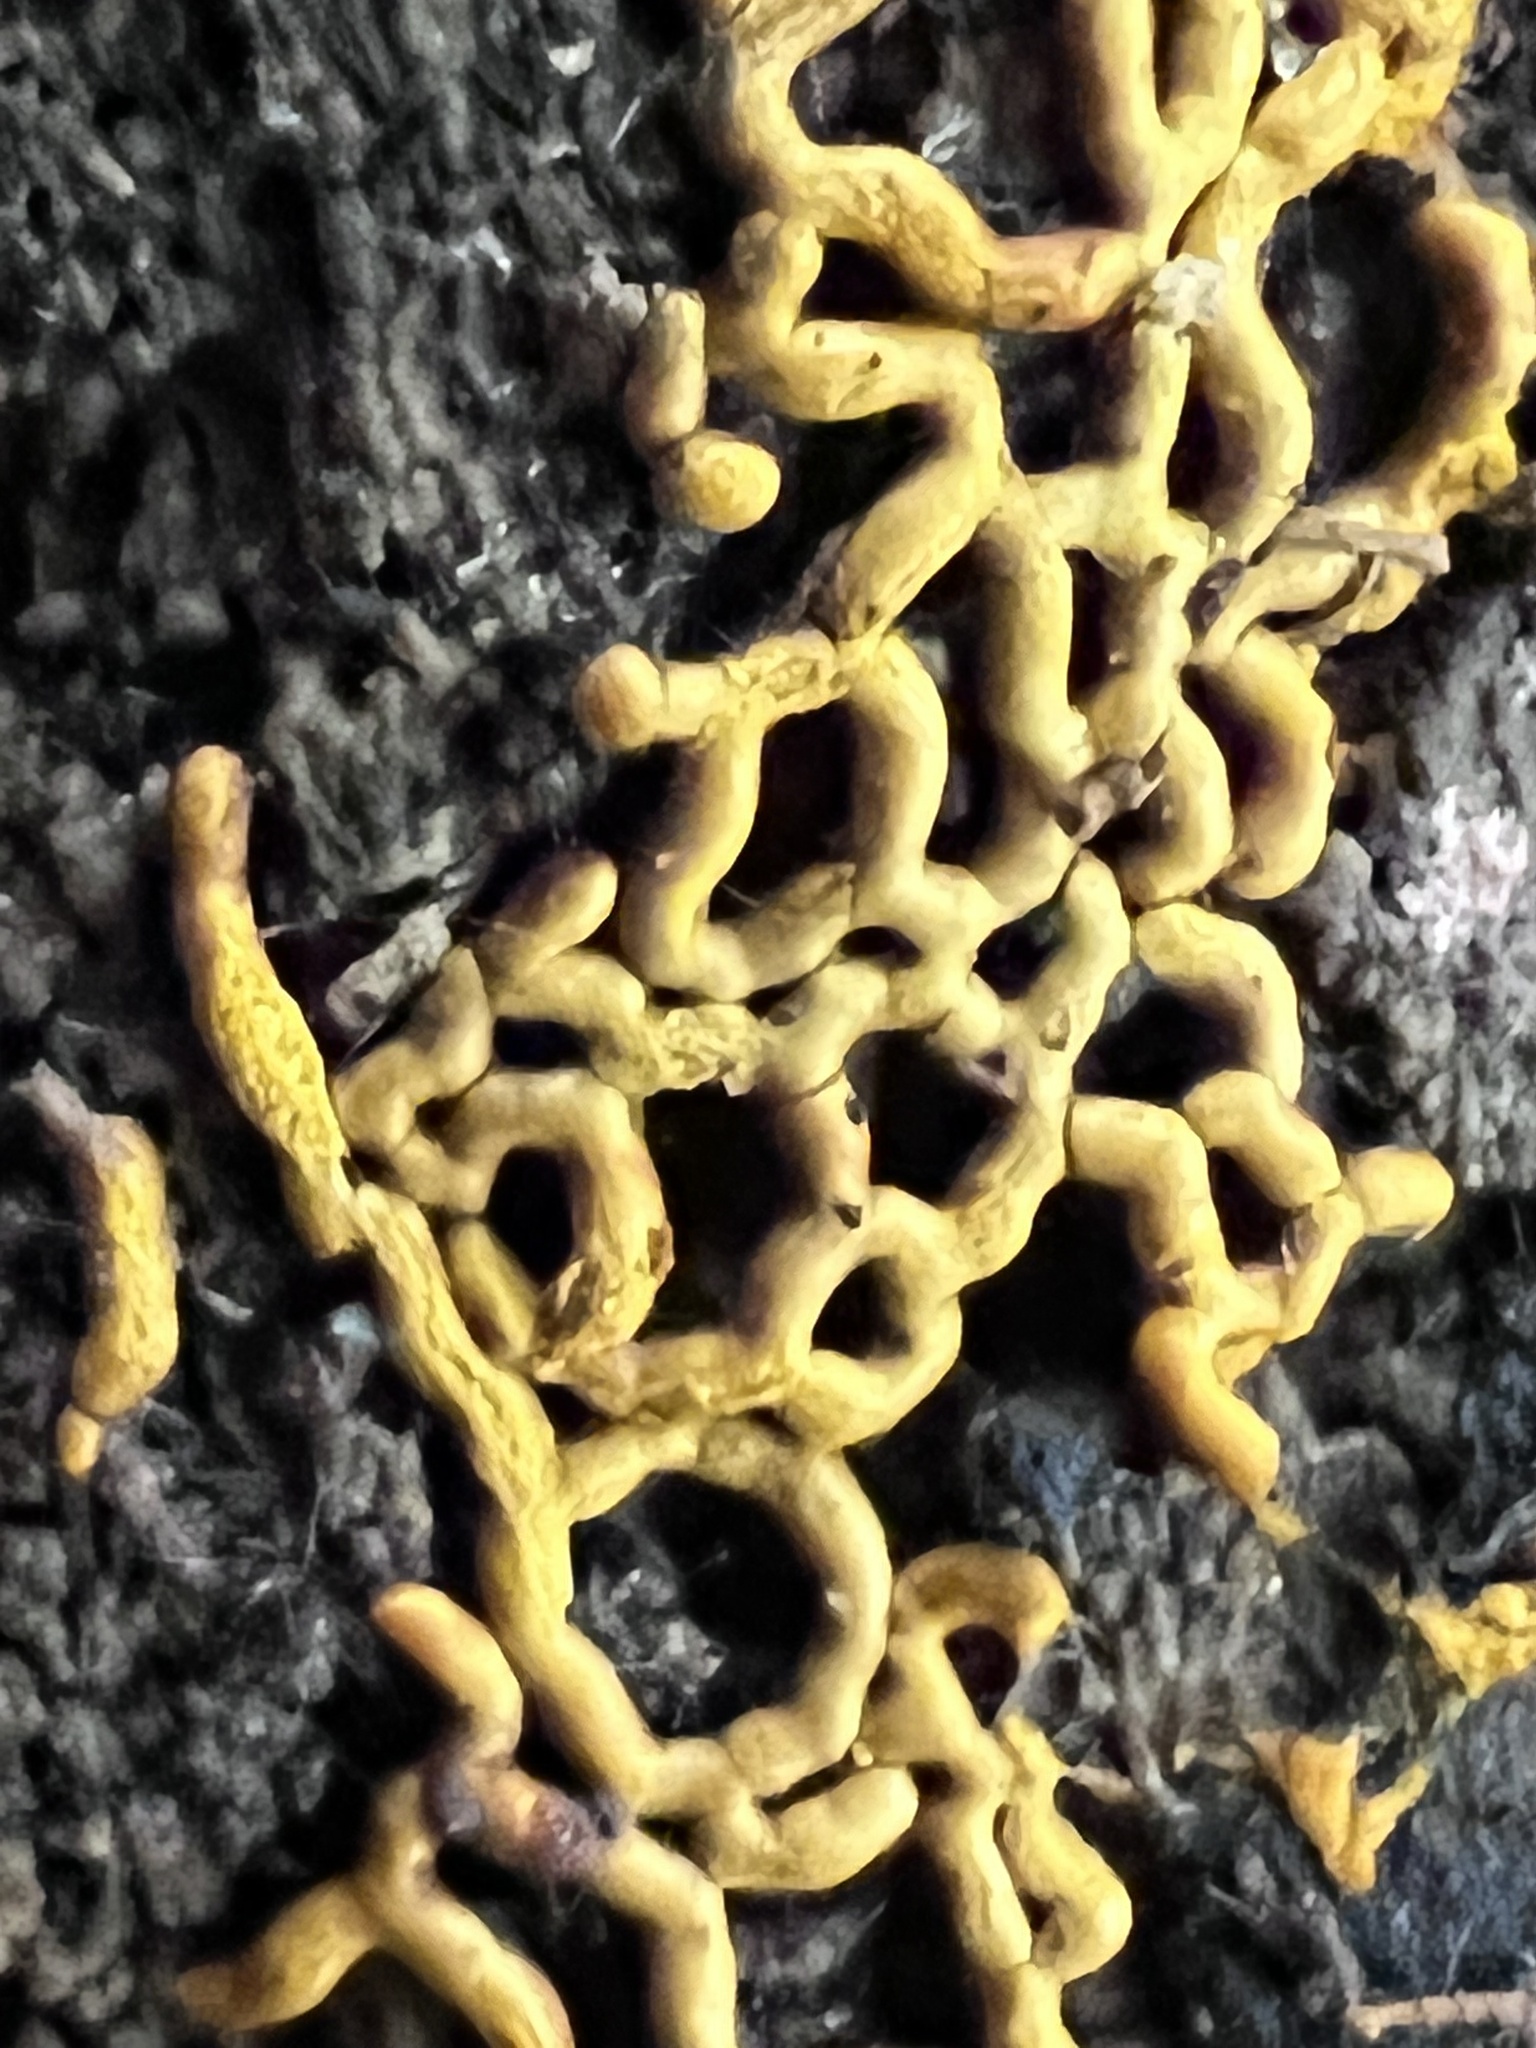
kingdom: Protozoa
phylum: Mycetozoa
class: Myxomycetes
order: Trichiales
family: Arcyriaceae
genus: Hemitrichia
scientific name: Hemitrichia serpula
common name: Pretzel slime mold
